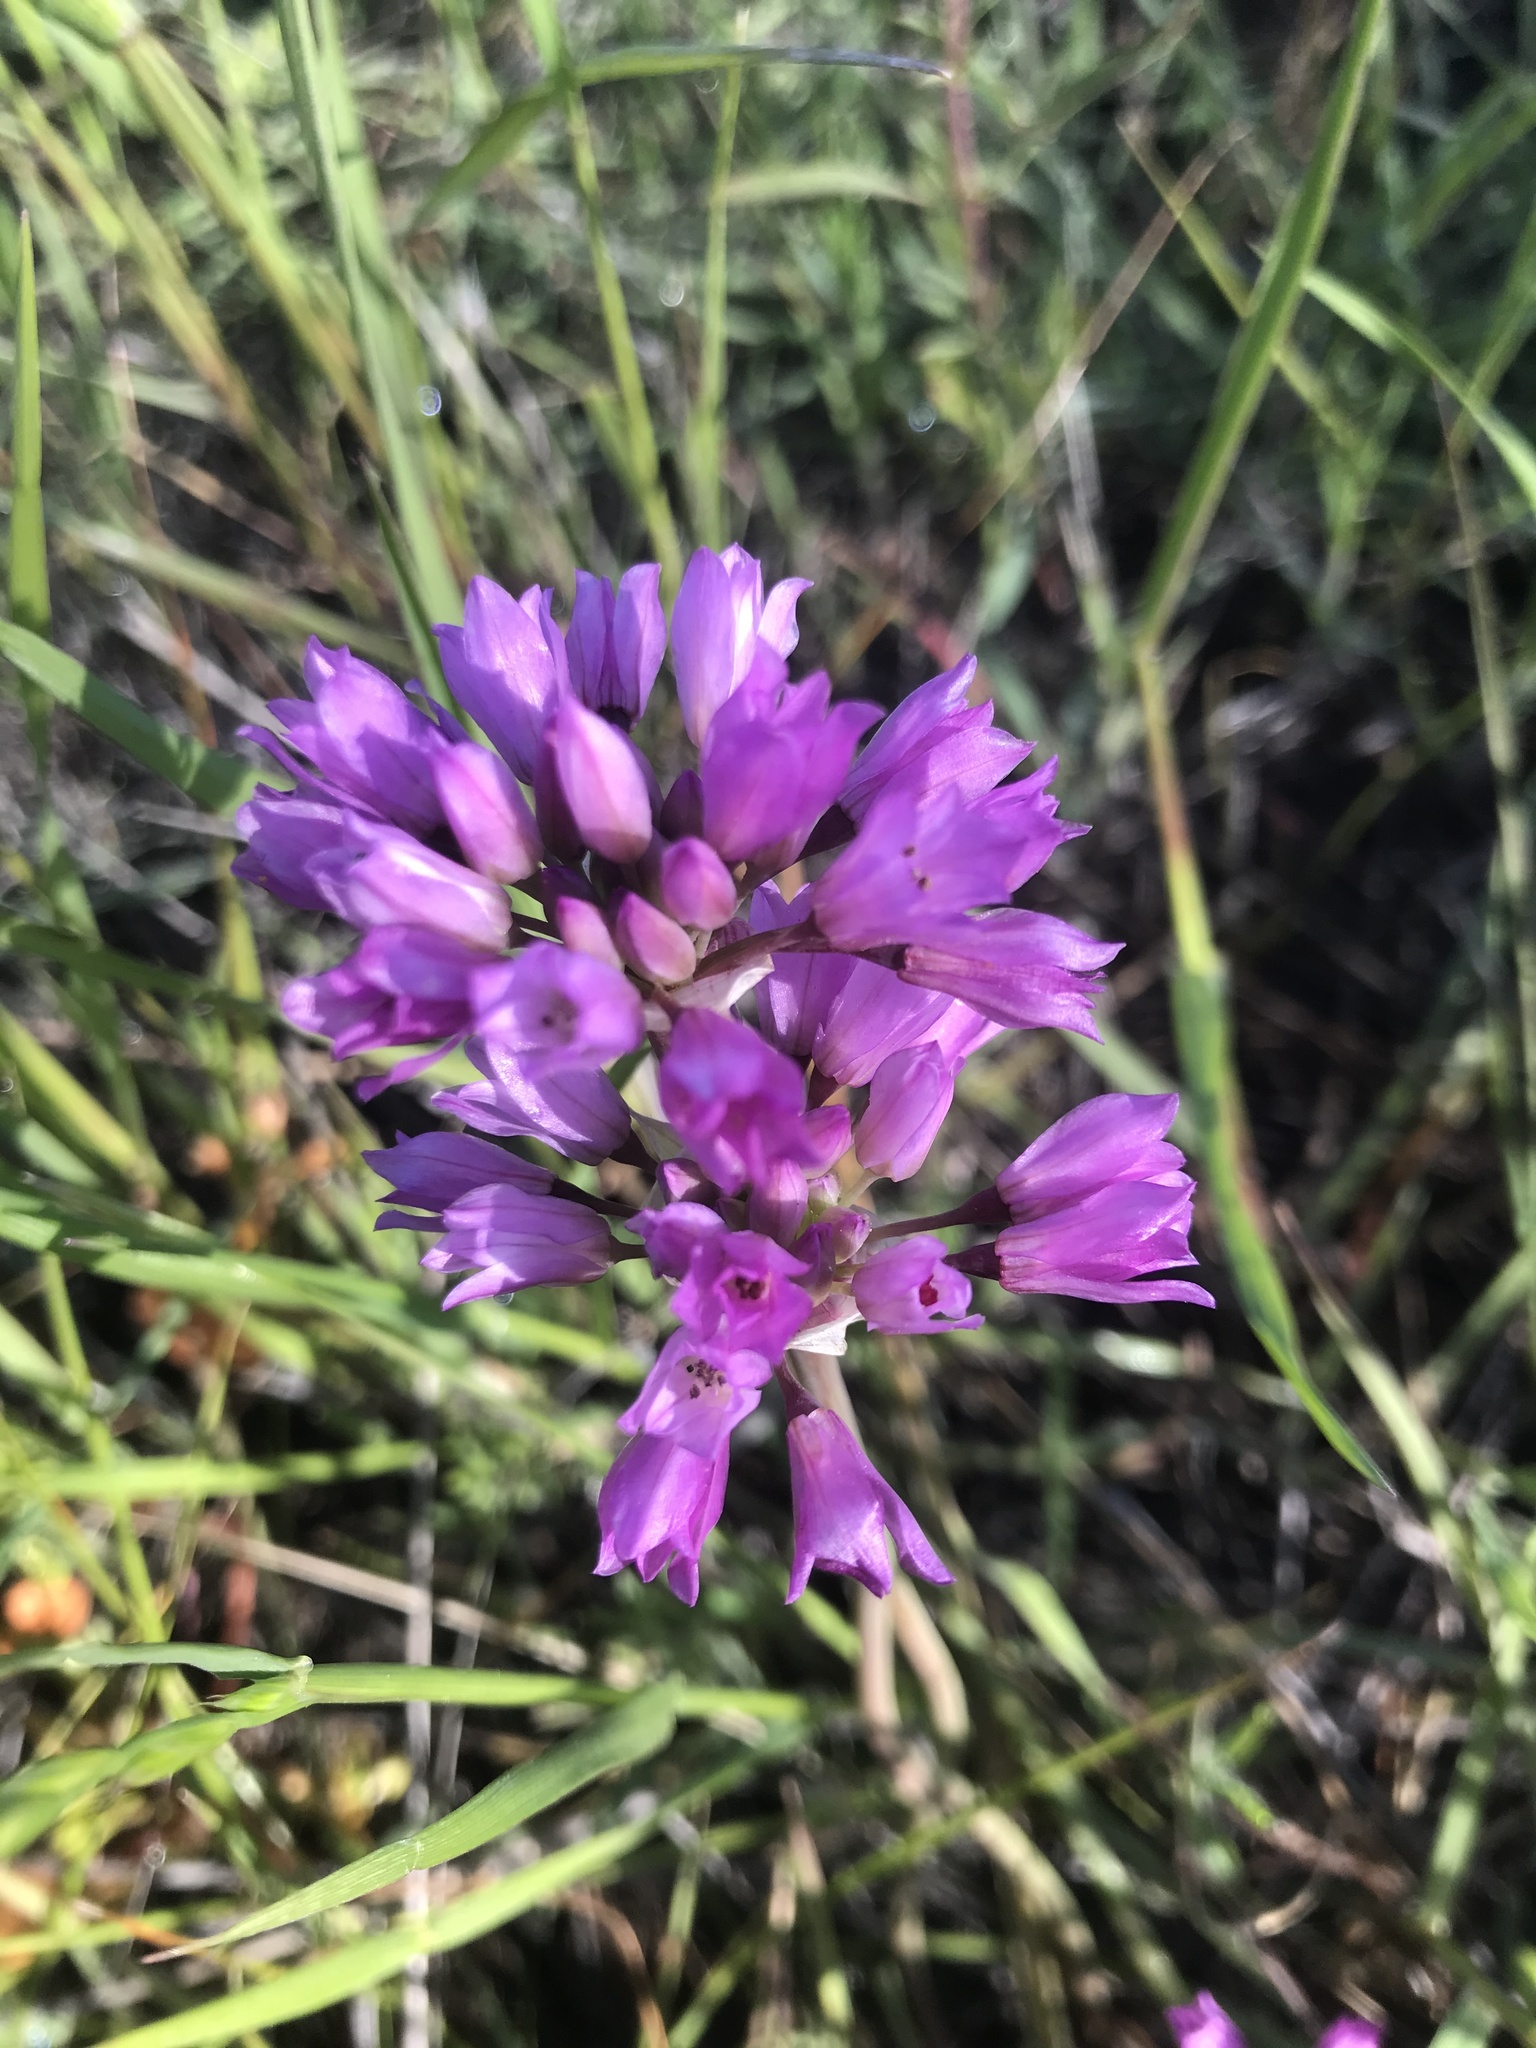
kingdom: Plantae
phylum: Tracheophyta
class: Liliopsida
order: Asparagales
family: Amaryllidaceae
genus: Allium
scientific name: Allium serra
